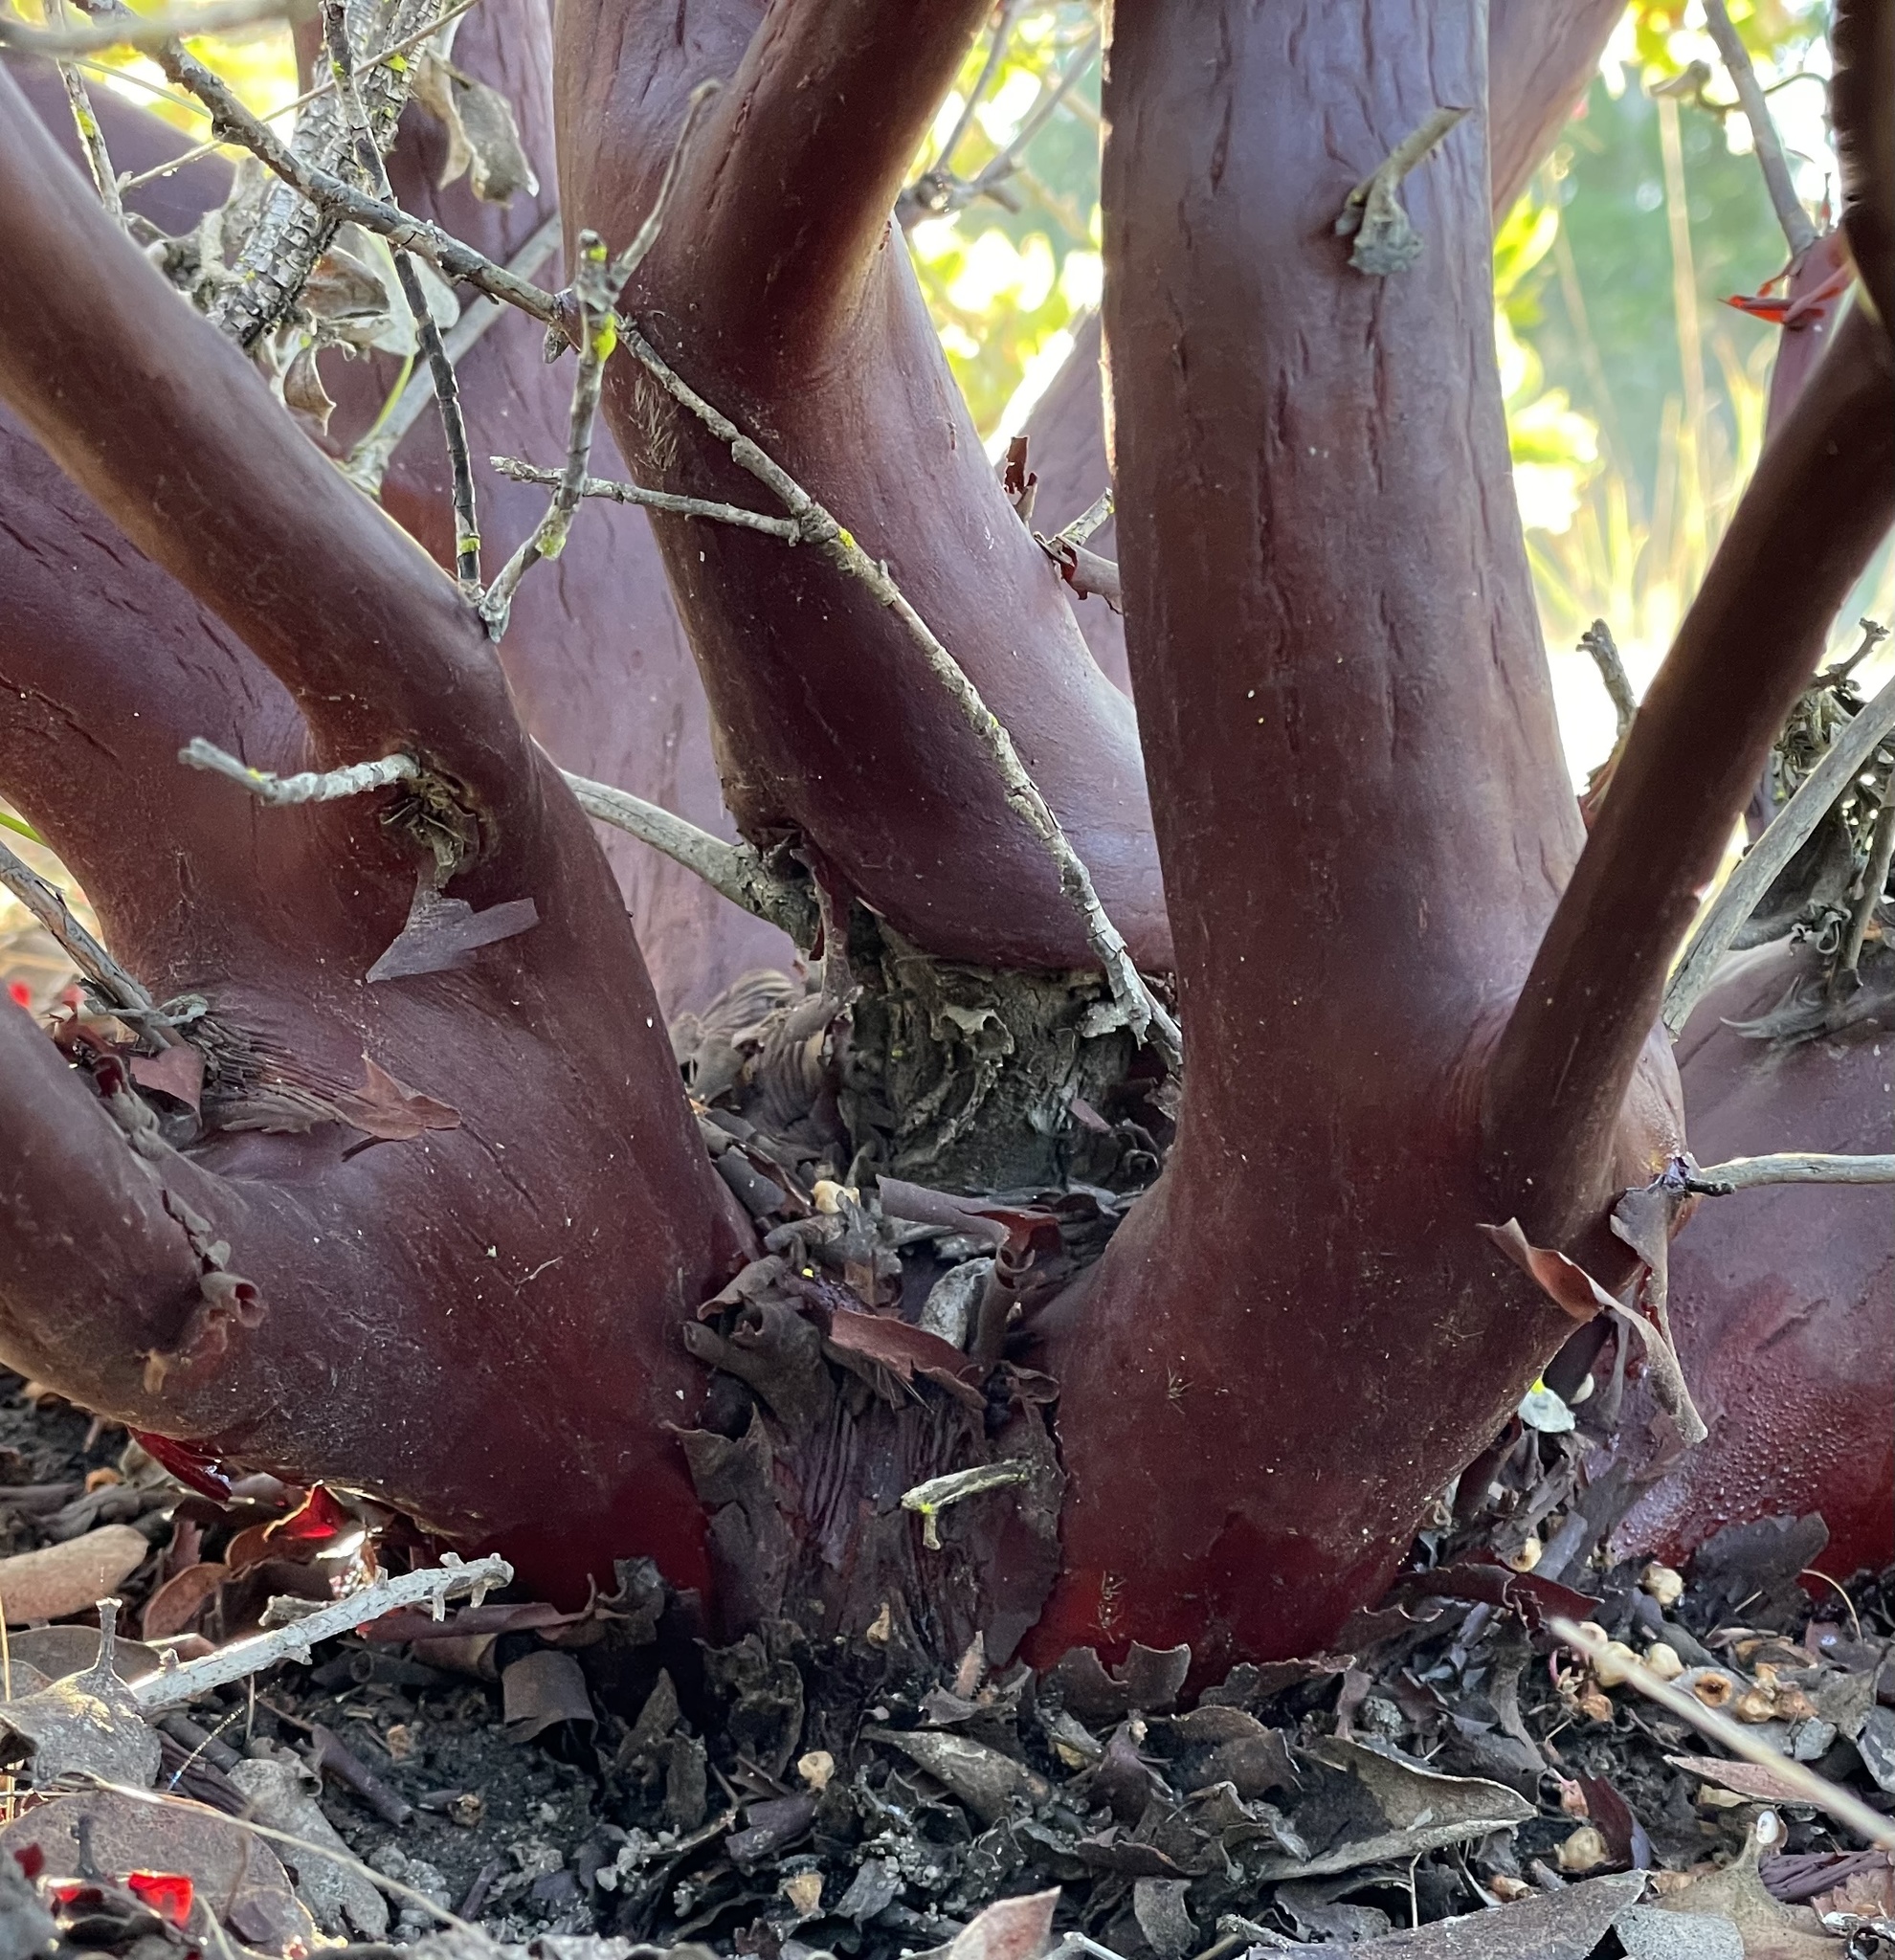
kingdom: Plantae
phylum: Tracheophyta
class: Magnoliopsida
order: Ericales
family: Ericaceae
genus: Arctostaphylos
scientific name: Arctostaphylos montereyensis
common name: Monterey manzanita
